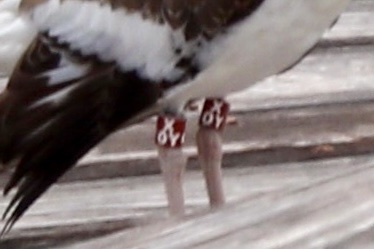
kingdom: Animalia
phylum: Chordata
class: Aves
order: Charadriiformes
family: Haematopodidae
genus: Haematopus
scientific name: Haematopus palliatus
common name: American oystercatcher
